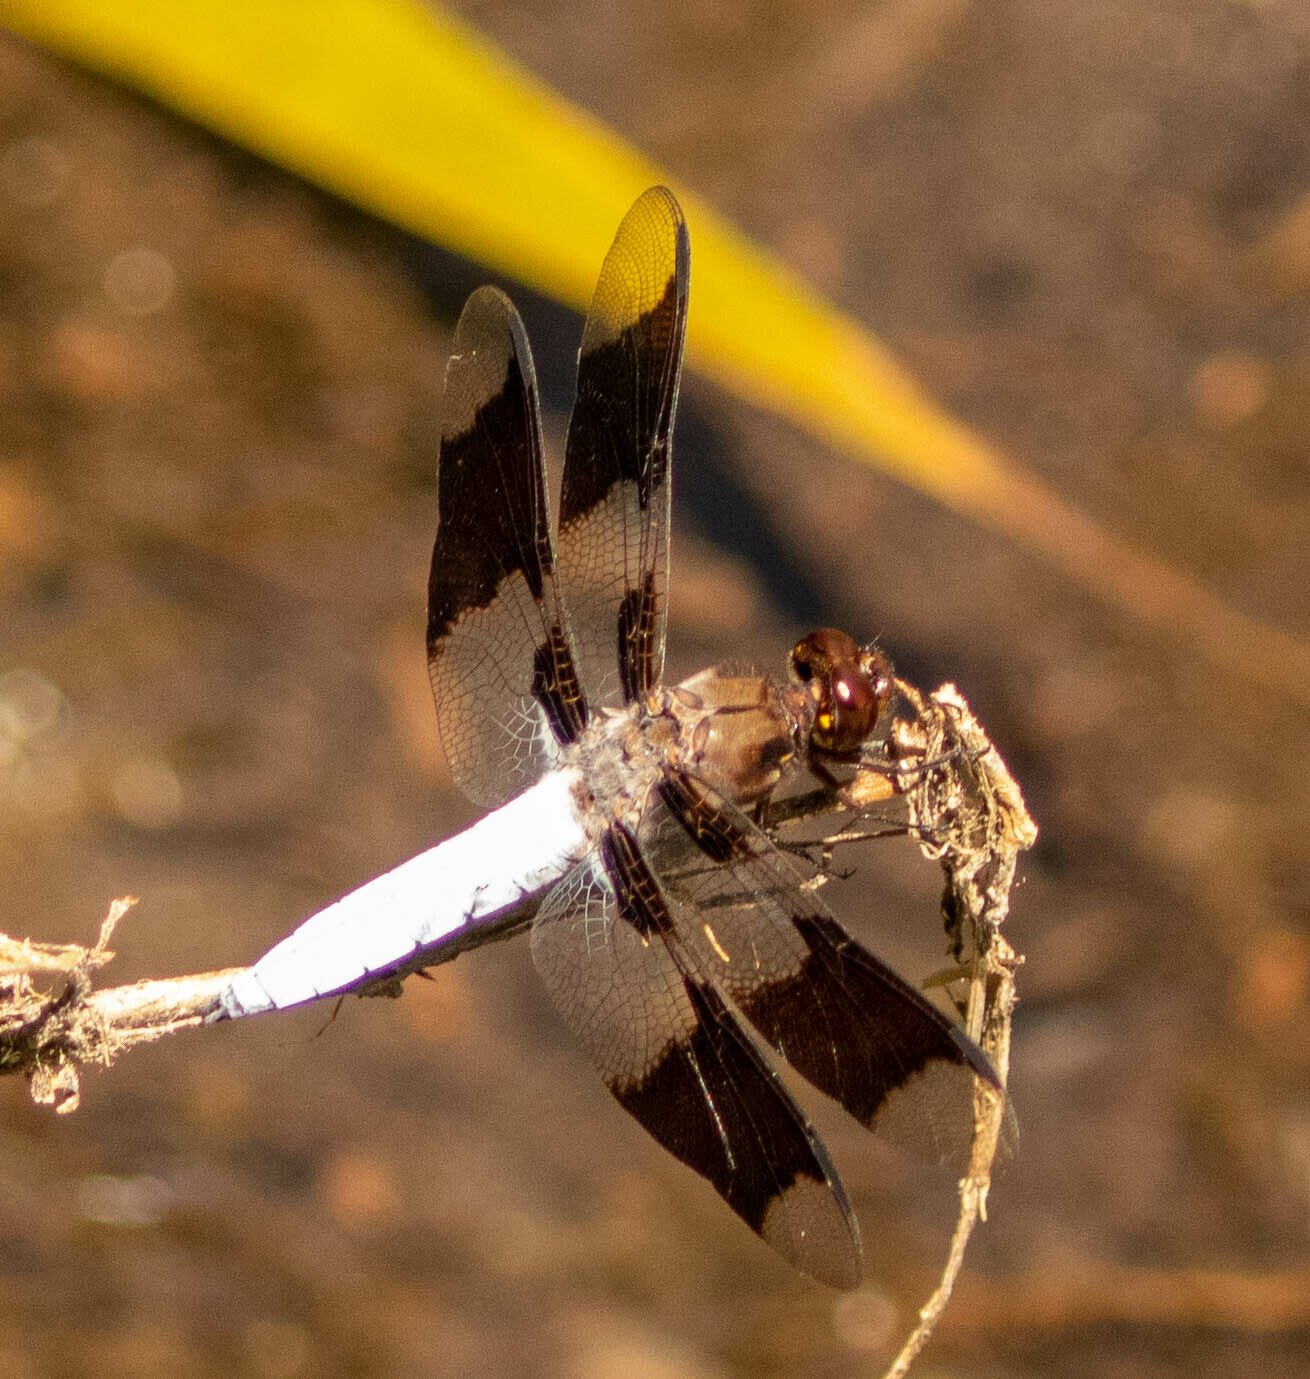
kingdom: Animalia
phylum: Arthropoda
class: Insecta
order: Odonata
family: Libellulidae
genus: Plathemis
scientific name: Plathemis lydia
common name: Common whitetail
